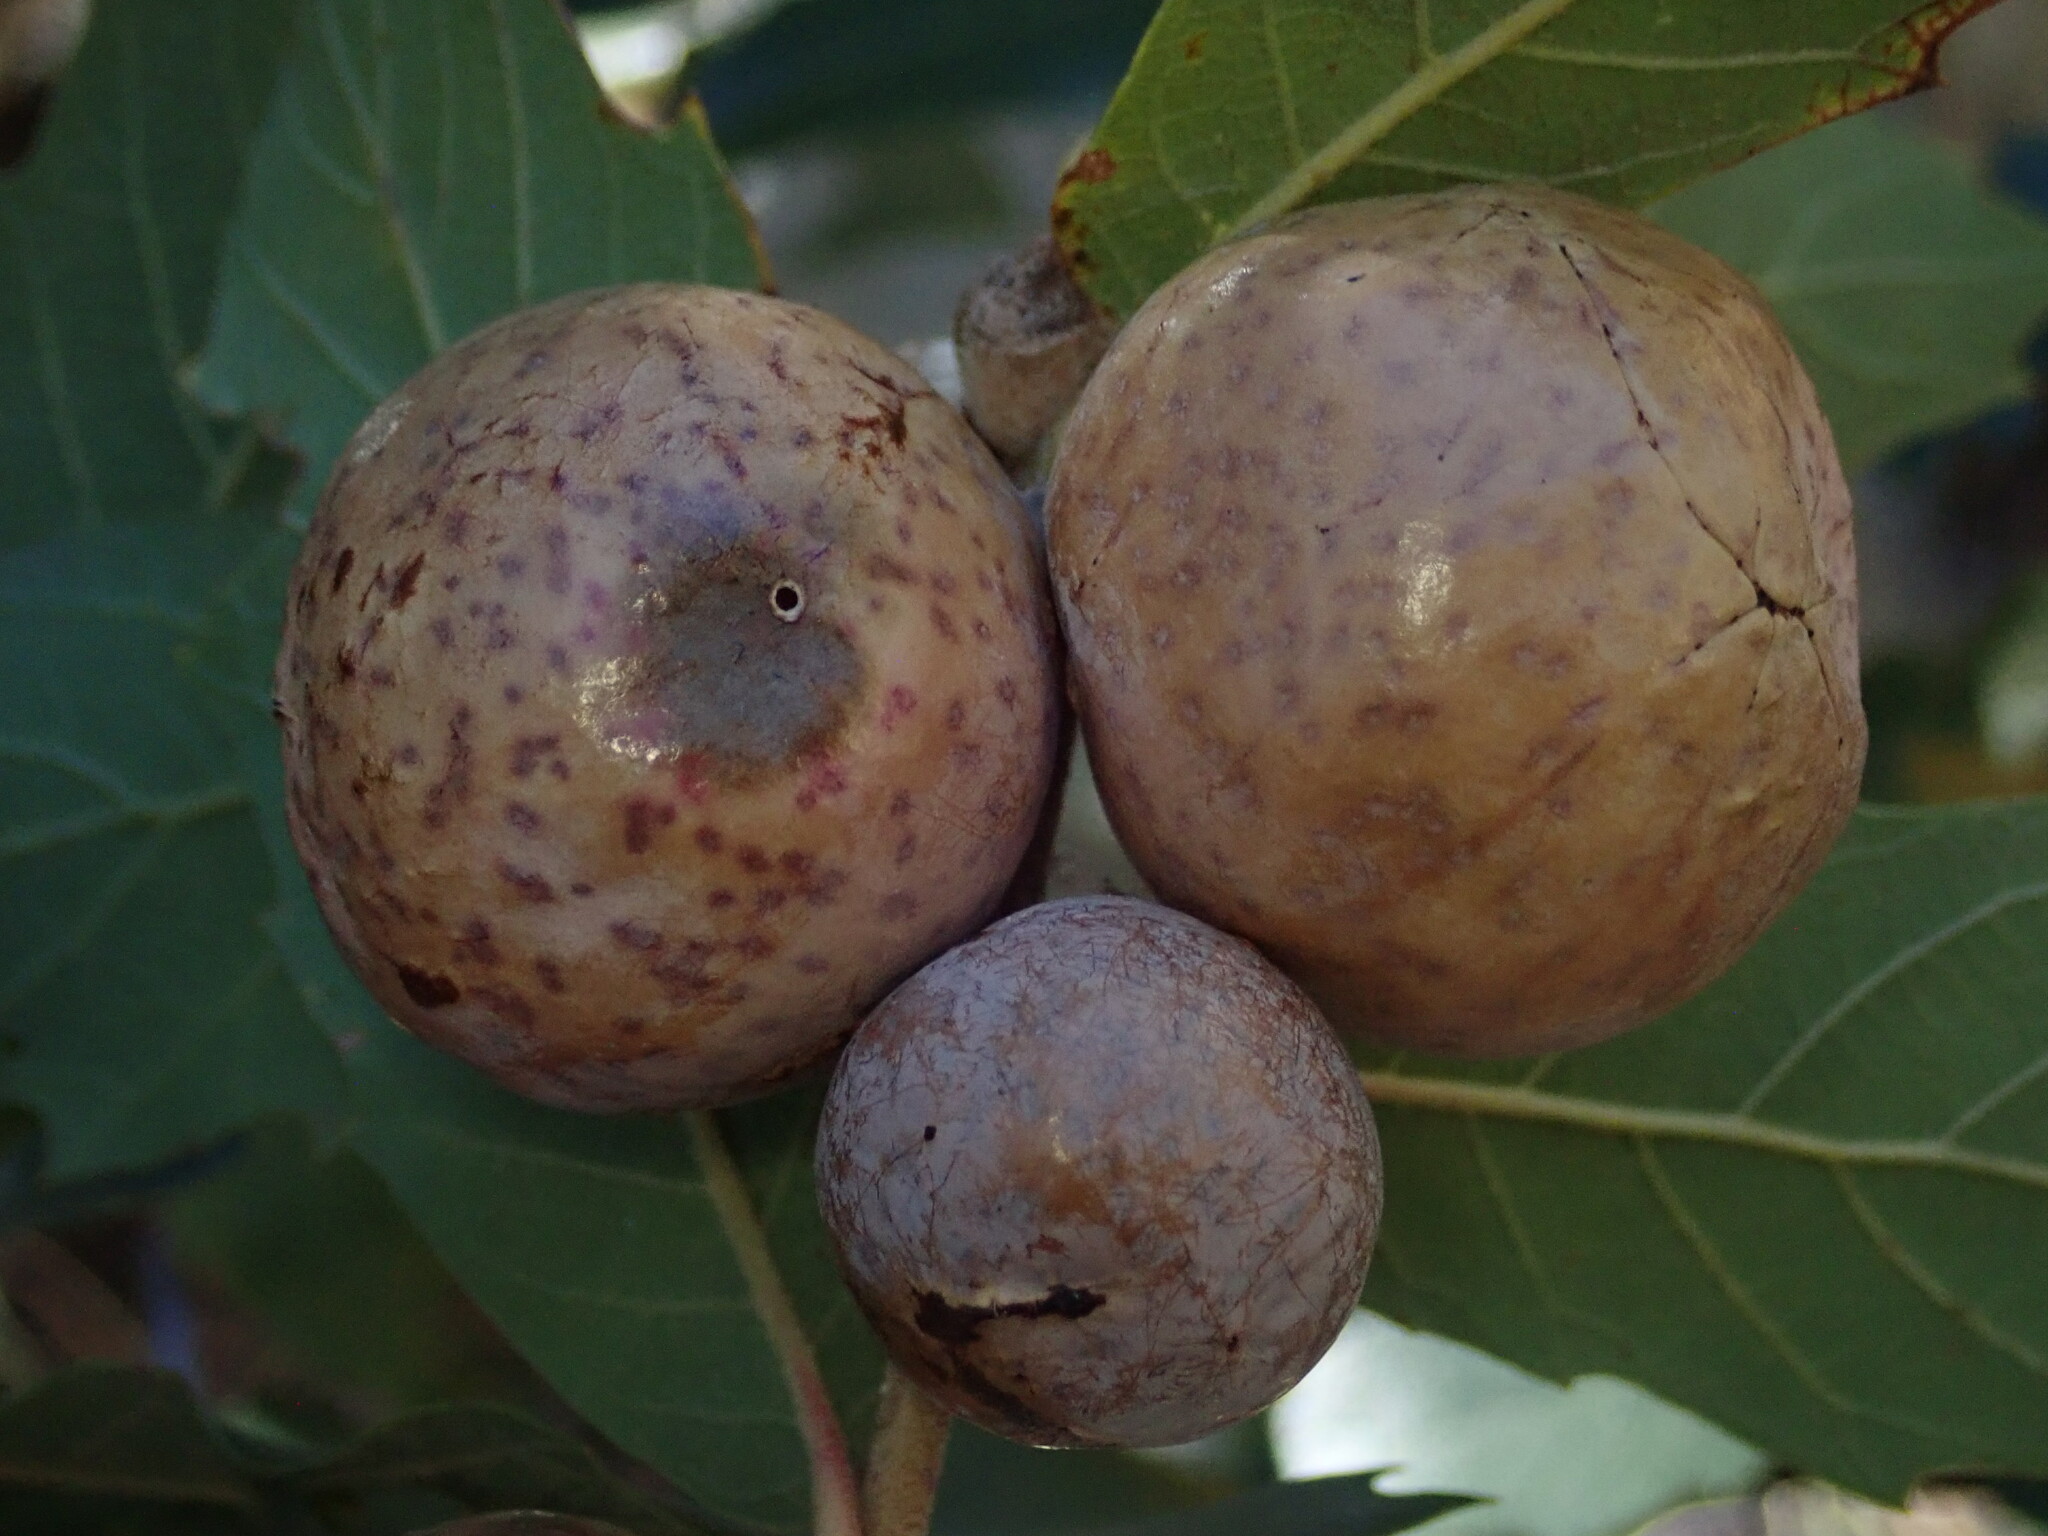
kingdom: Animalia
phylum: Arthropoda
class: Insecta
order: Hymenoptera
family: Cynipidae
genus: Atrusca
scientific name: Atrusca
